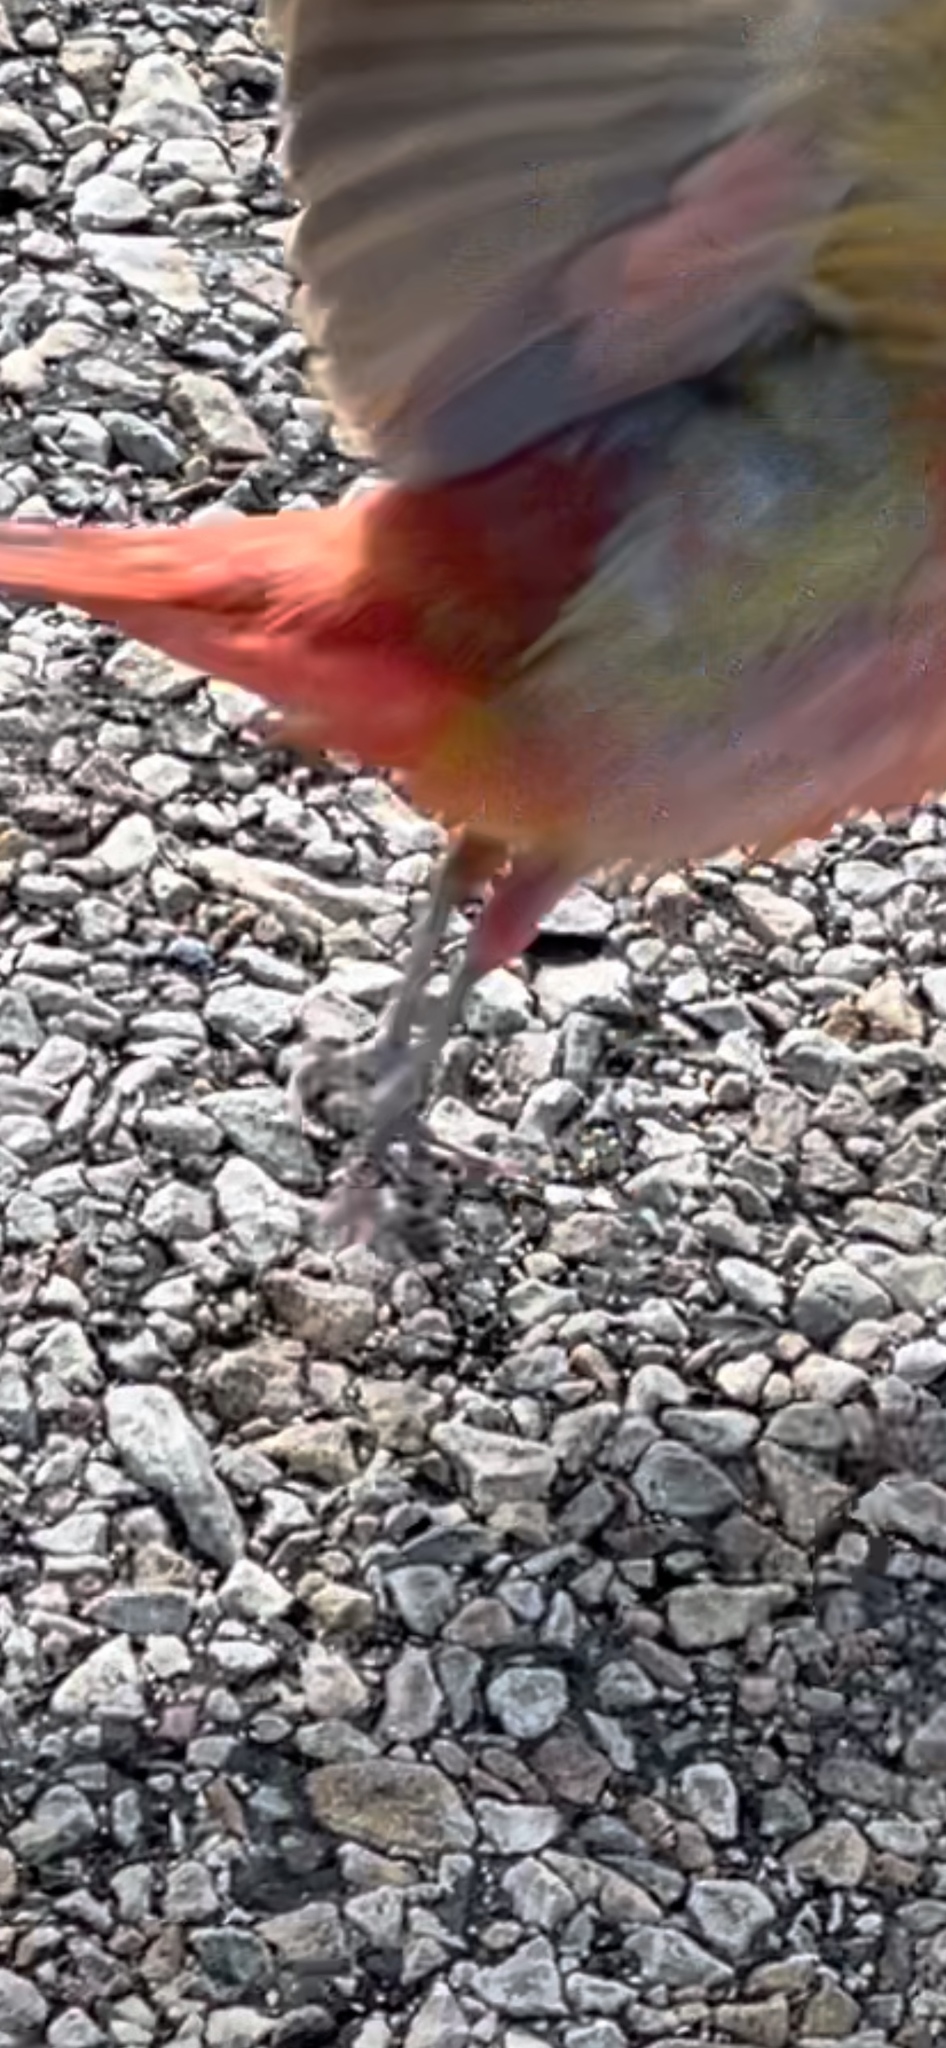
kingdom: Animalia
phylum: Chordata
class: Aves
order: Passeriformes
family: Cardinalidae
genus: Piranga
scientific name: Piranga rubra
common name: Summer tanager
